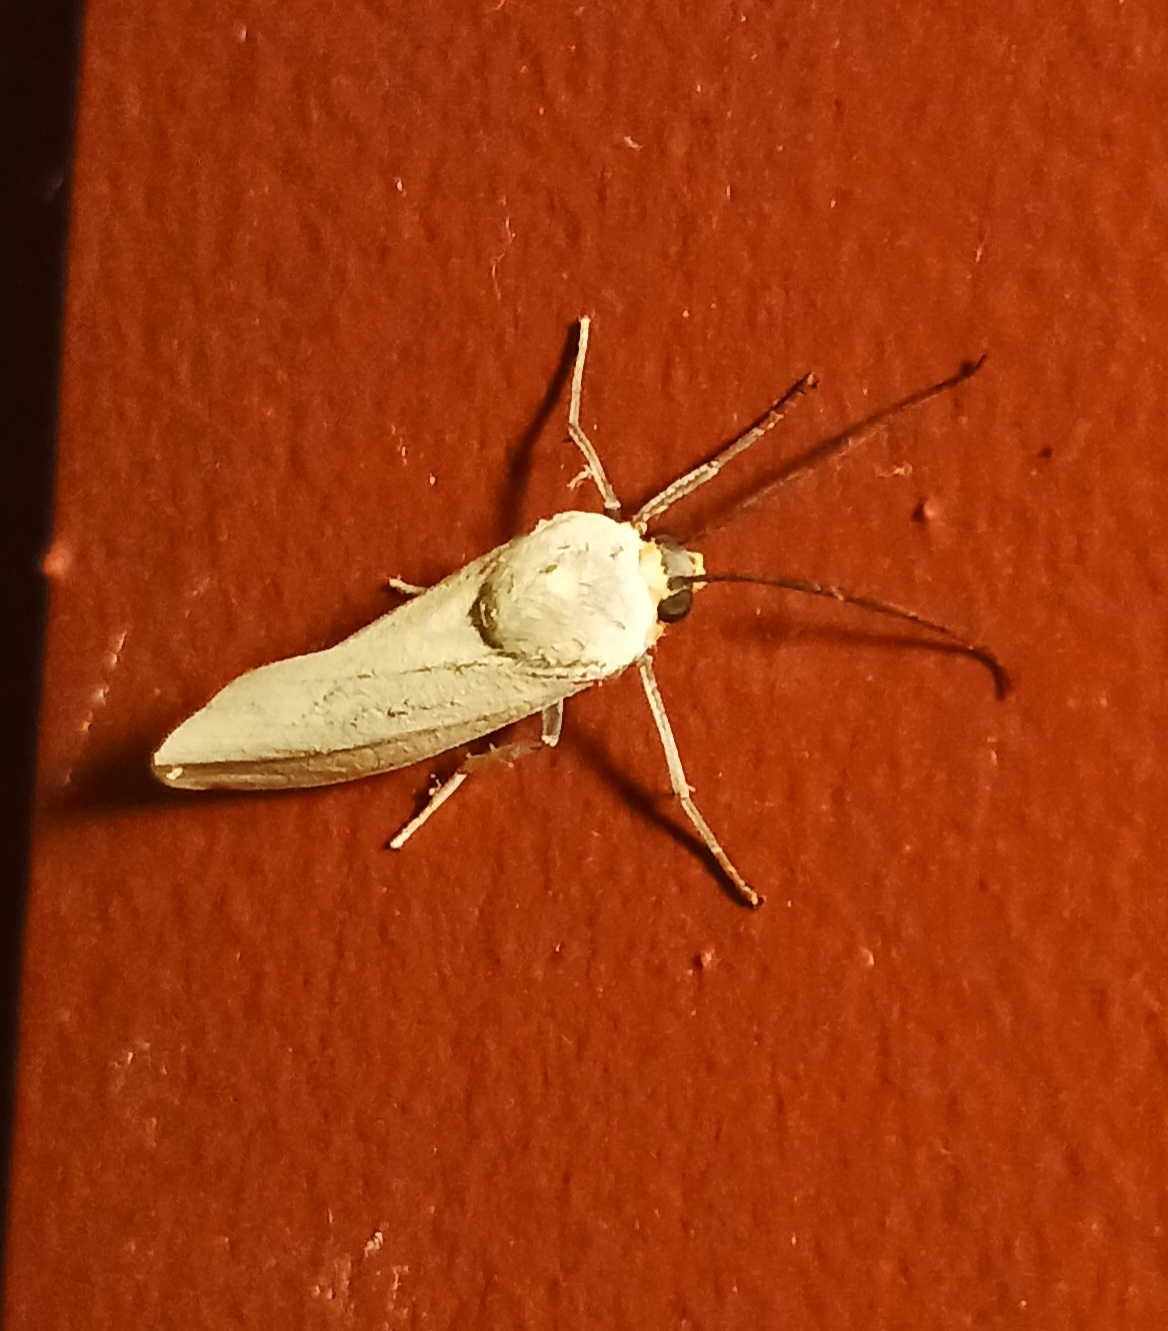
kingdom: Animalia
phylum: Arthropoda
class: Insecta
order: Lepidoptera
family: Erebidae
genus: Lymire
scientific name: Lymire edwardsii
